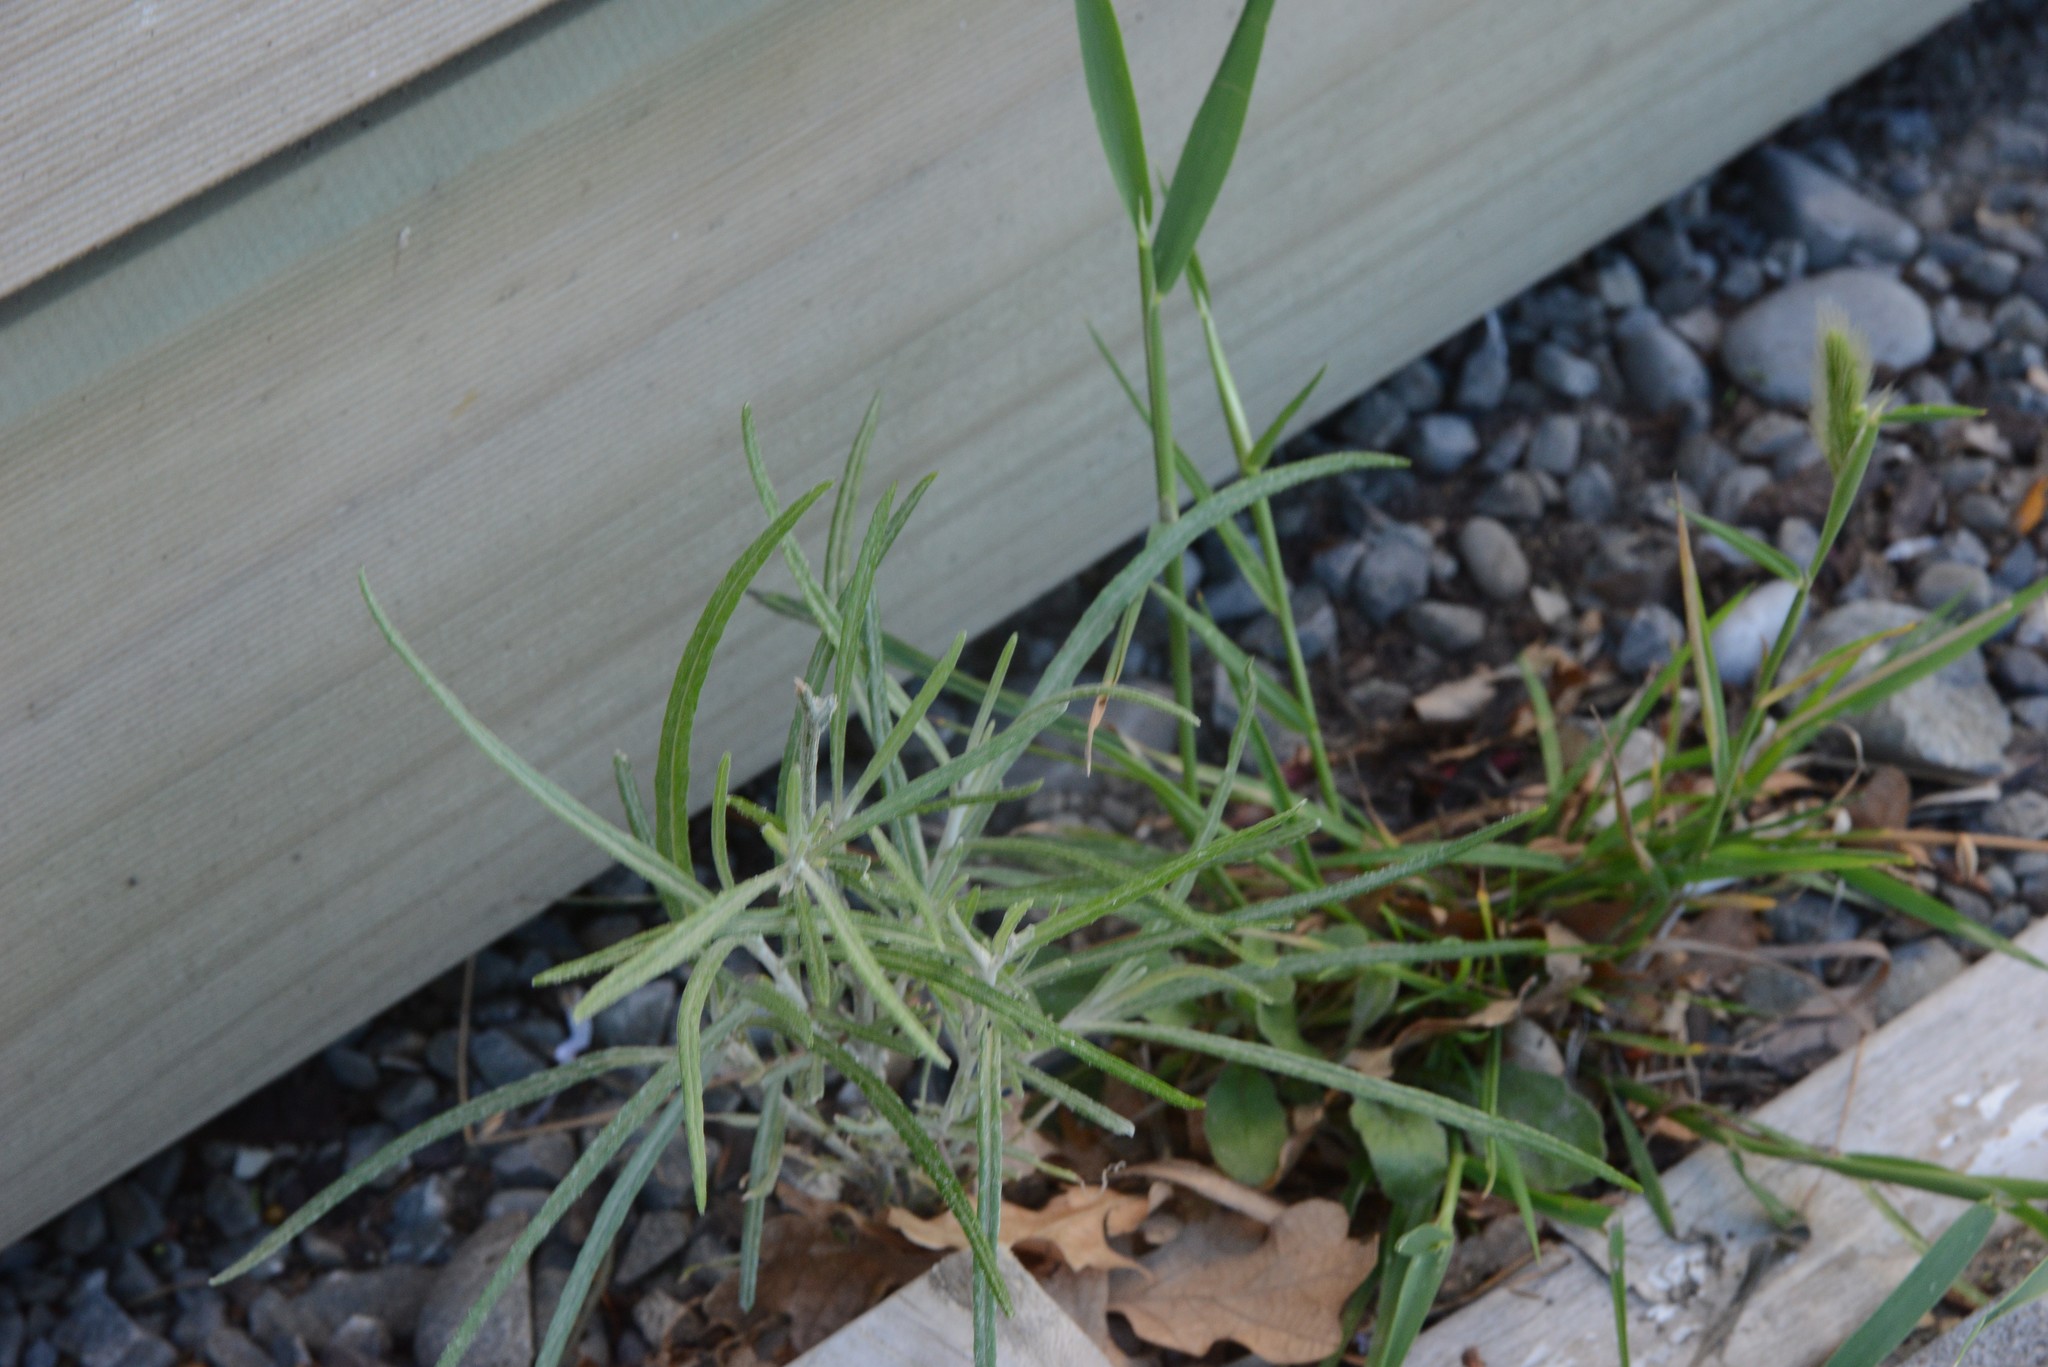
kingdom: Plantae
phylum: Tracheophyta
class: Magnoliopsida
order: Asterales
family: Asteraceae
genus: Senecio
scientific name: Senecio quadridentatus
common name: Cotton fireweed
